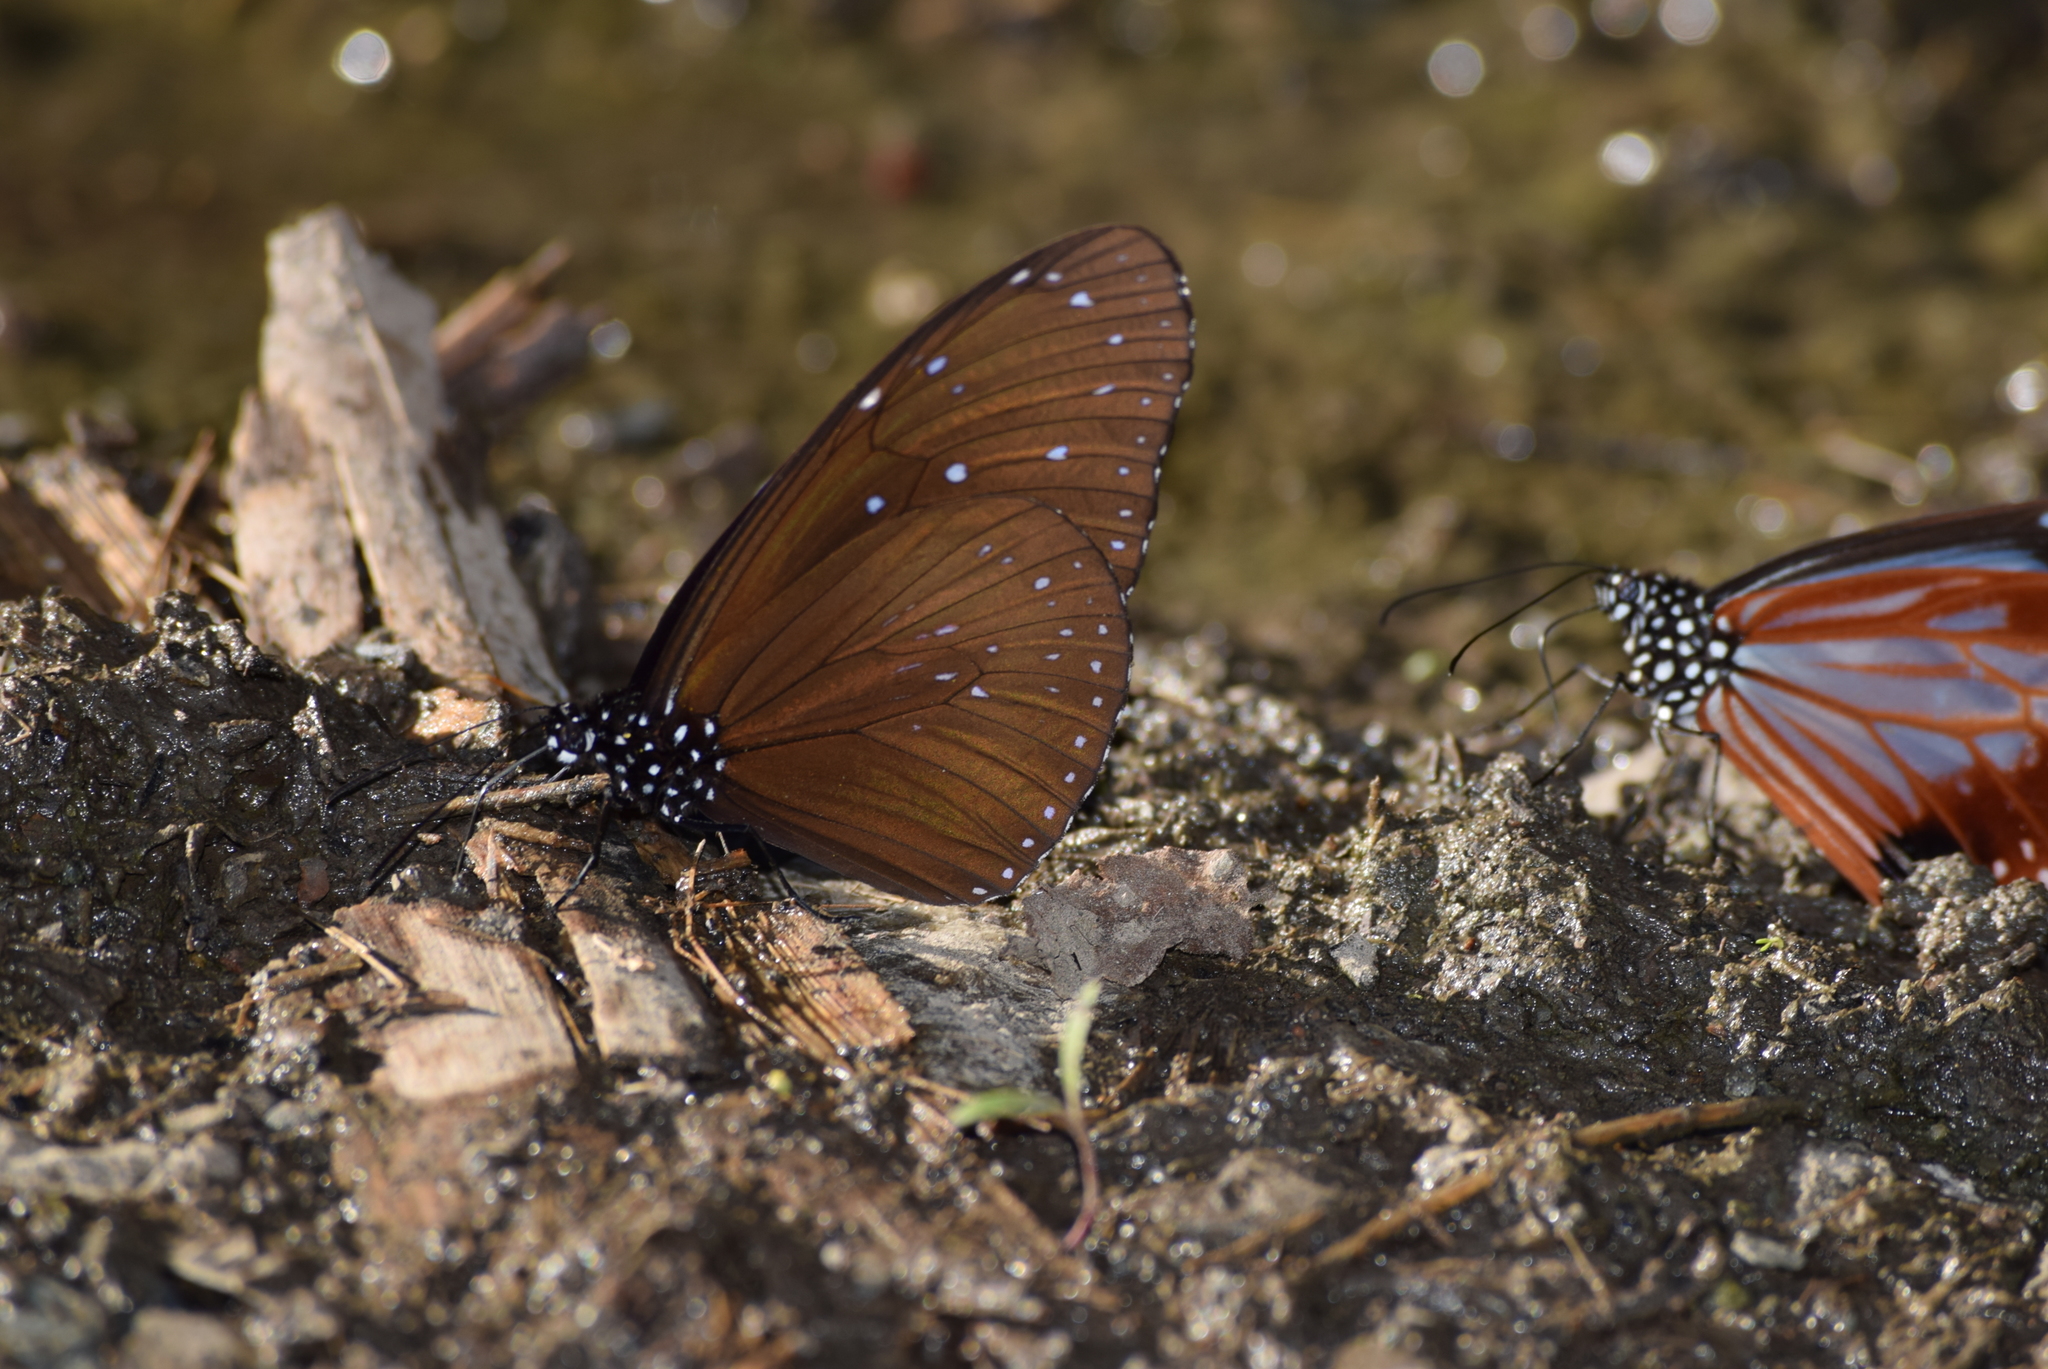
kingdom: Animalia
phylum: Arthropoda
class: Insecta
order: Lepidoptera
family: Nymphalidae
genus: Euploea
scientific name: Euploea mulciber
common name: Striped blue crow butterfly
